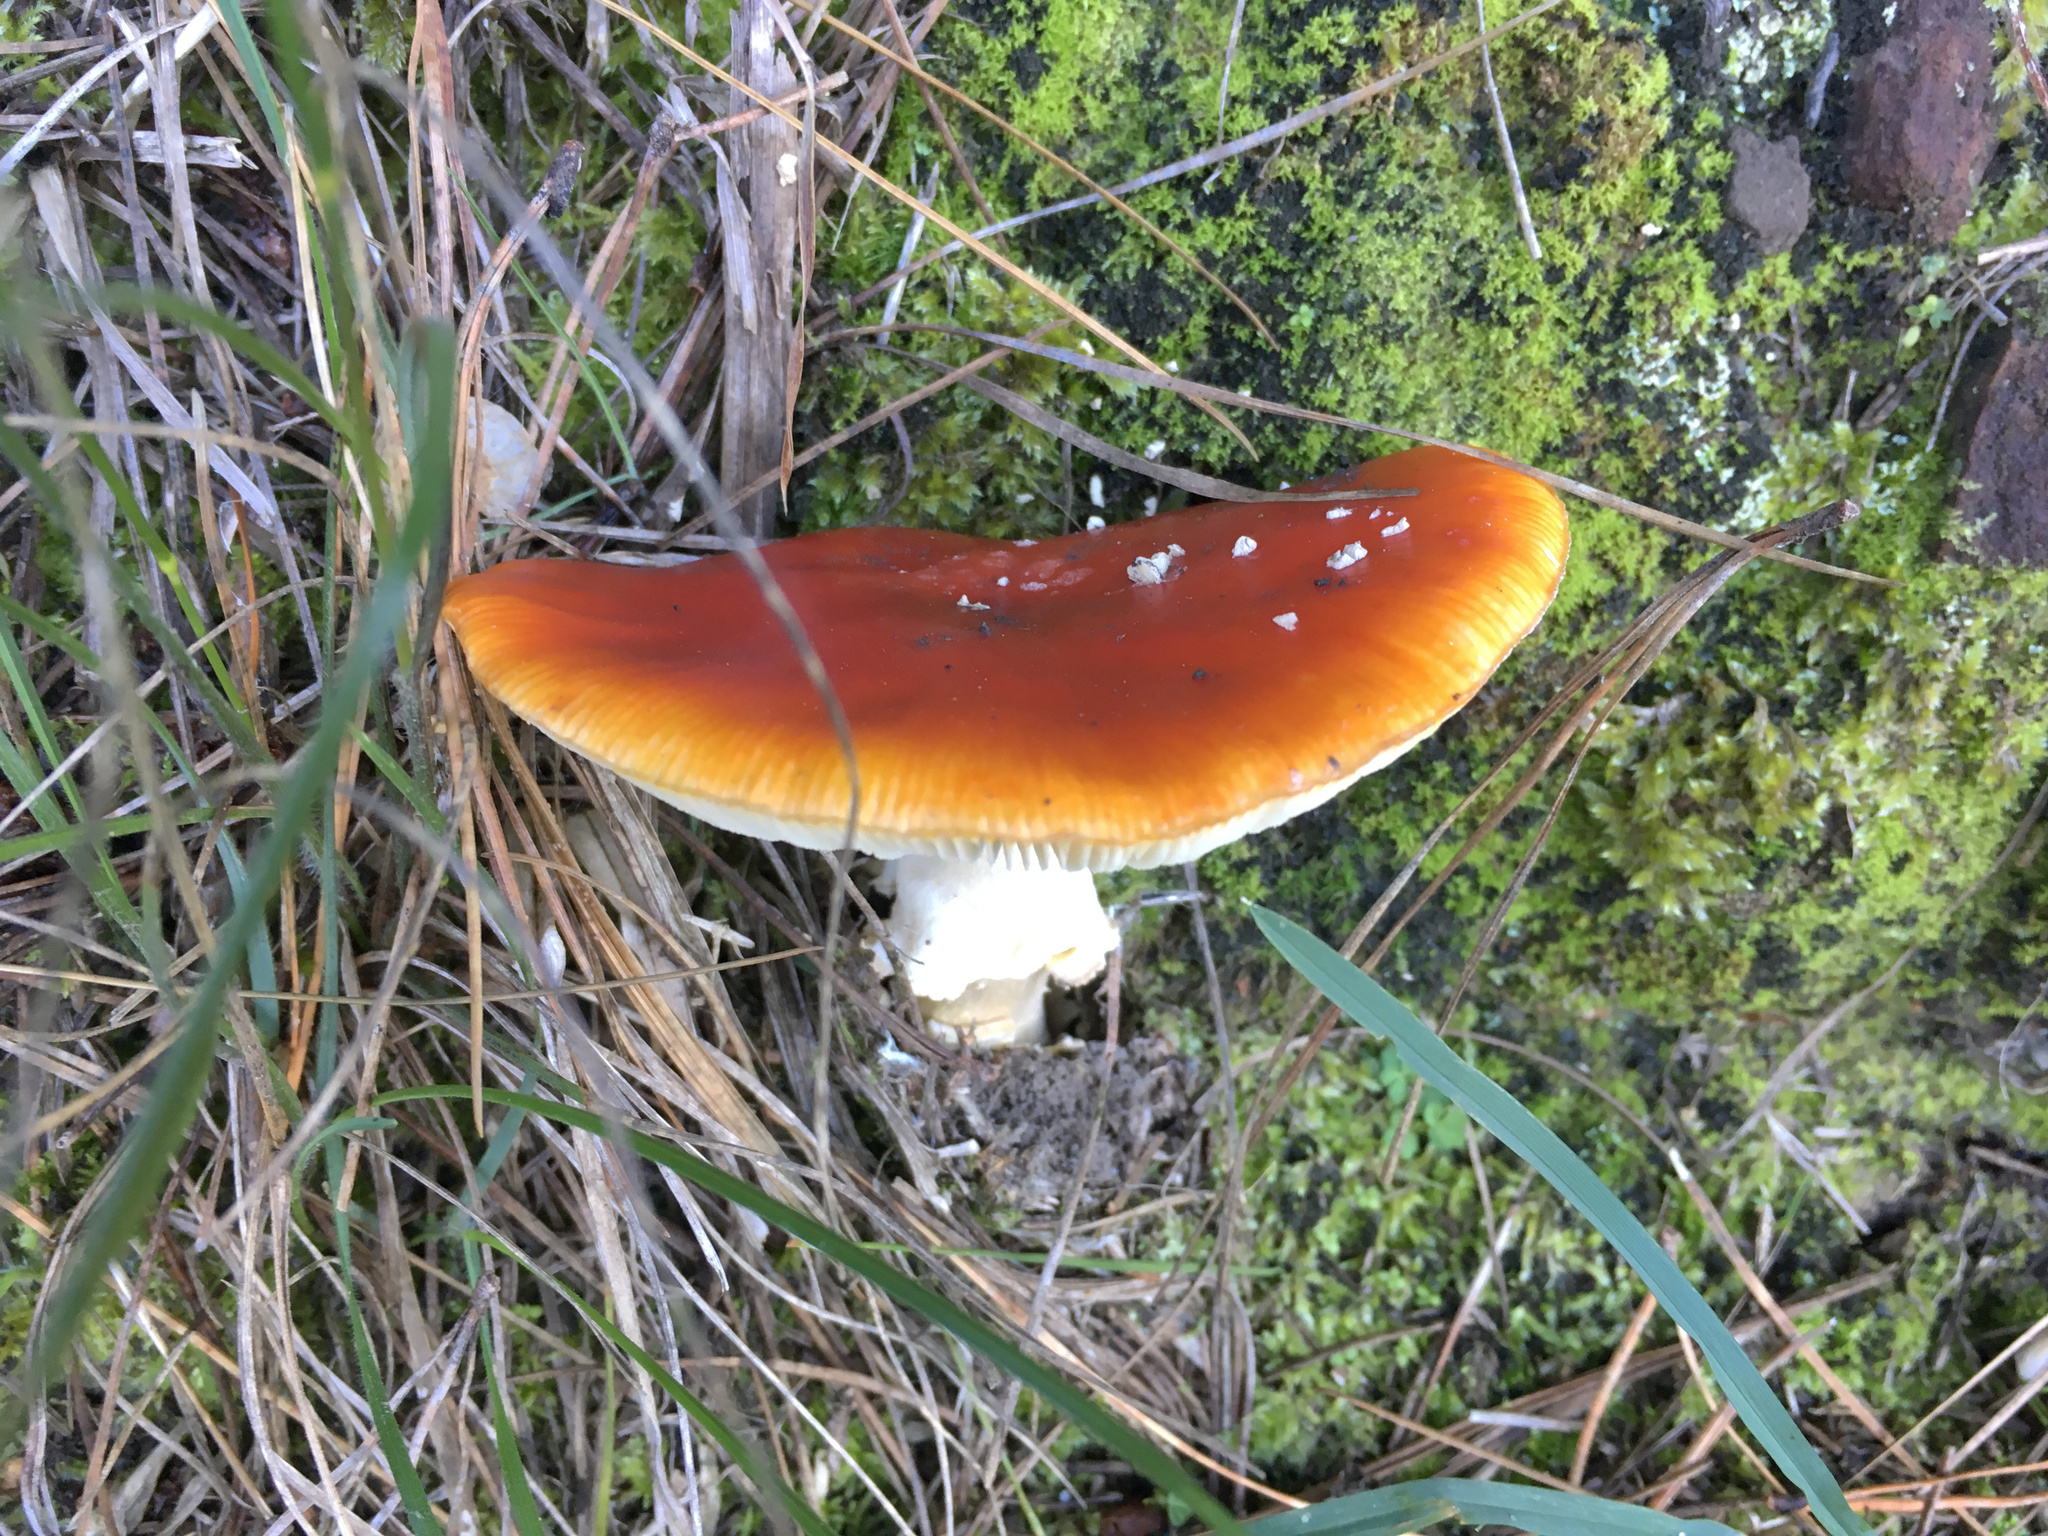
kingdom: Fungi
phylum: Basidiomycota
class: Agaricomycetes
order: Agaricales
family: Amanitaceae
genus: Amanita
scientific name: Amanita muscaria
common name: Fly agaric
